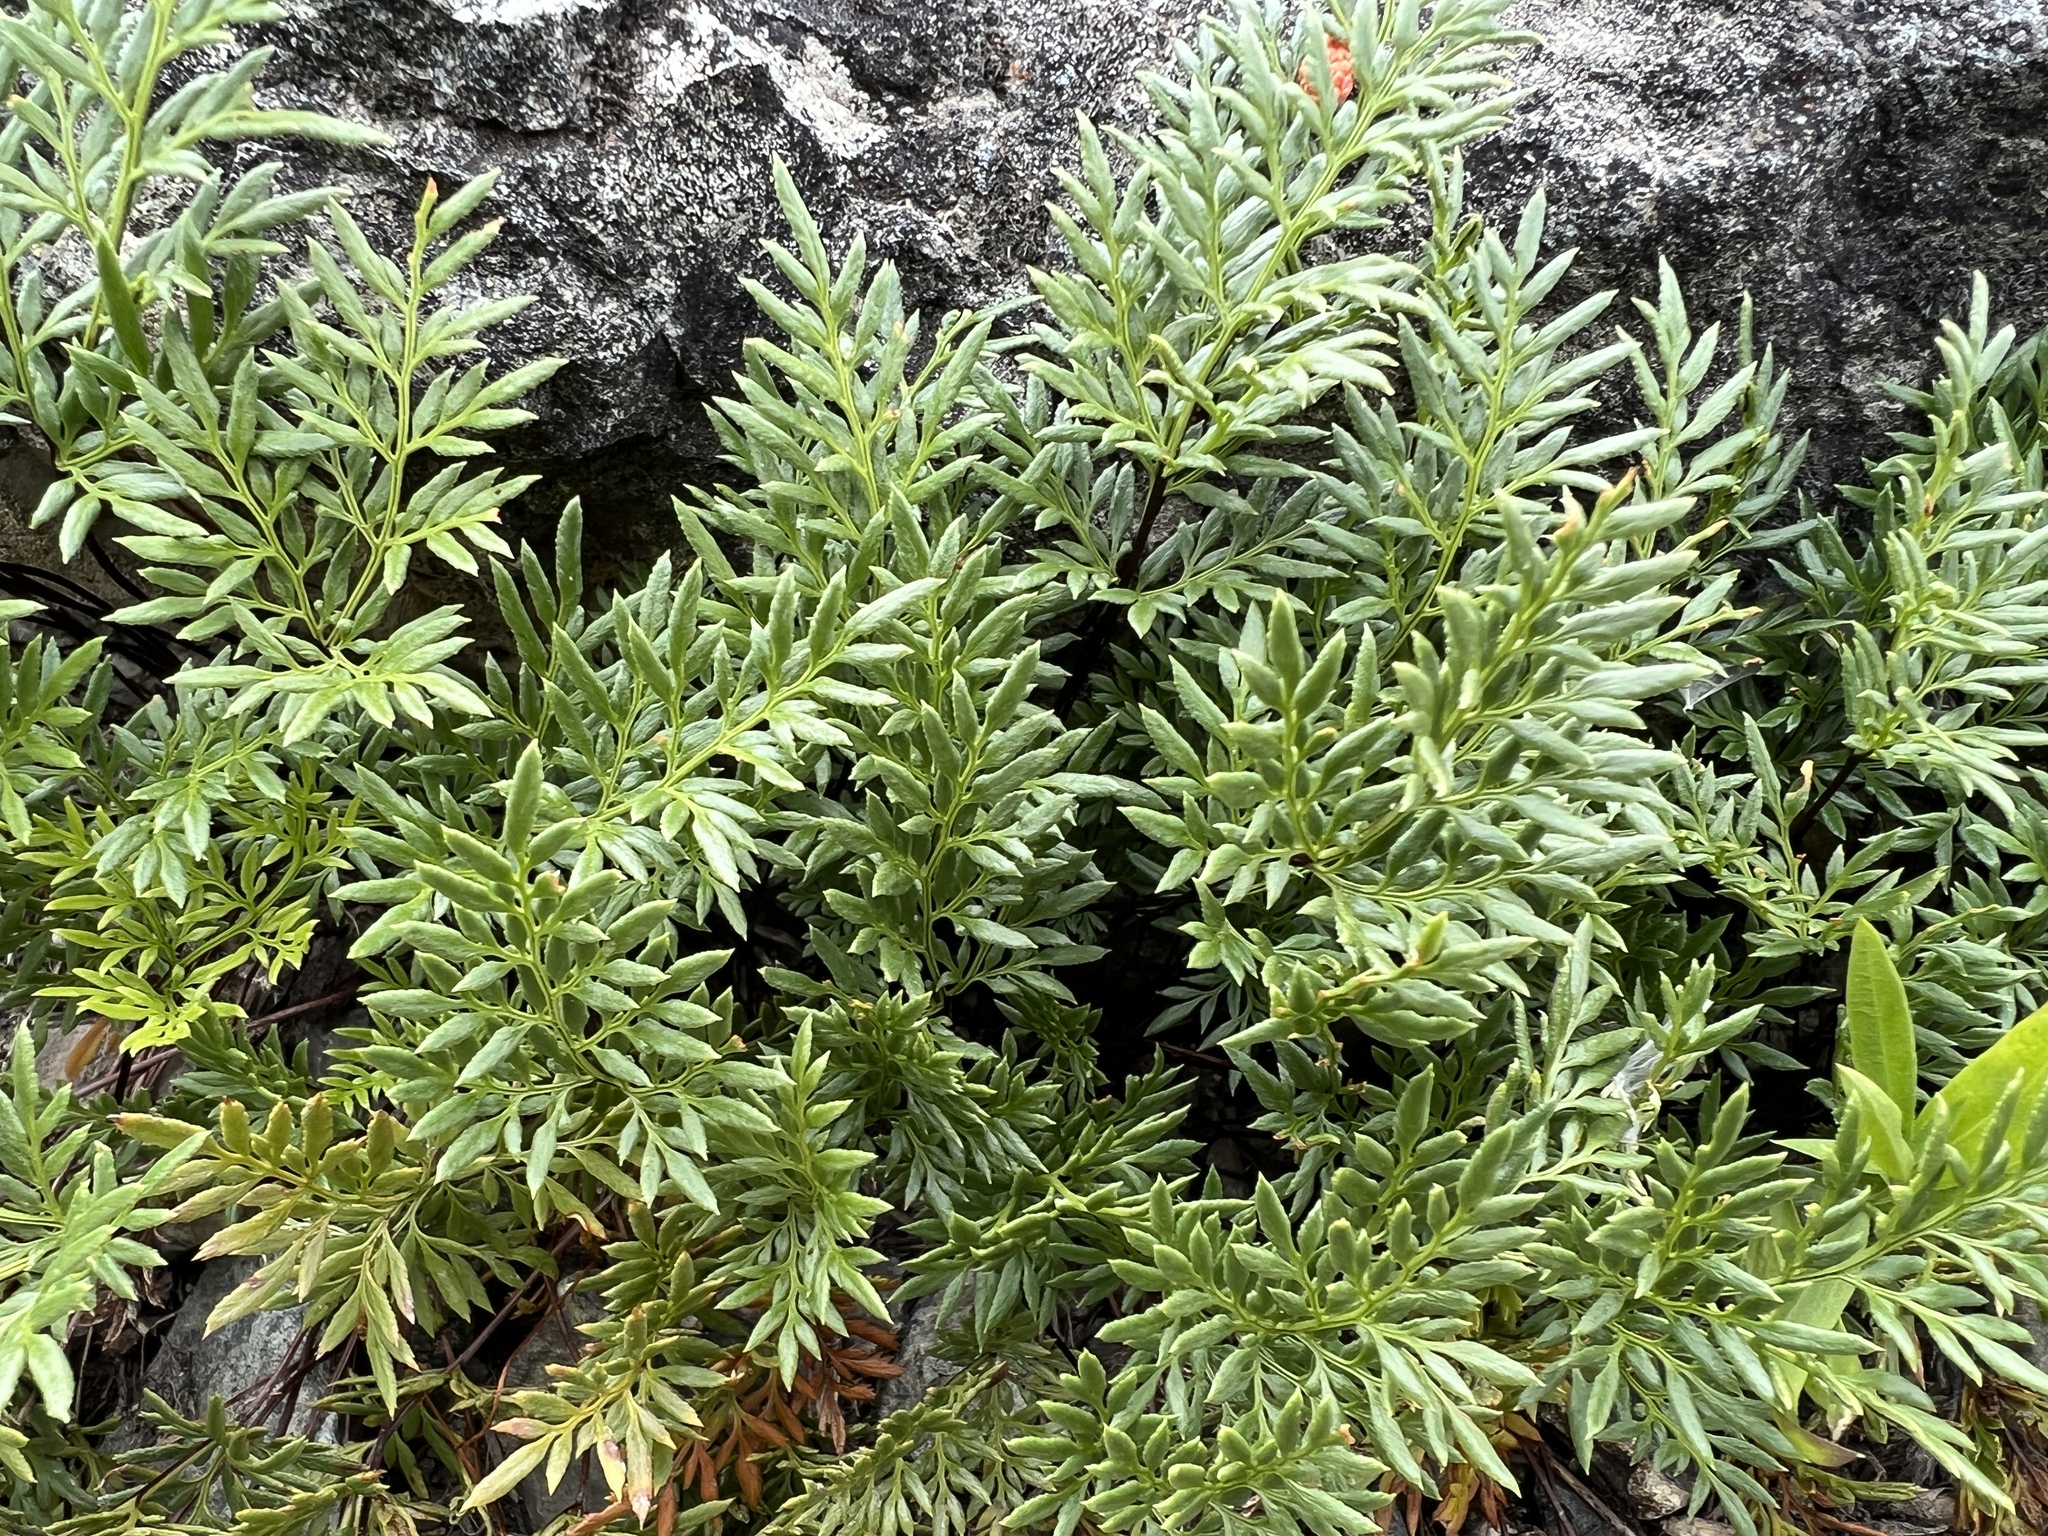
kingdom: Plantae
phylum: Tracheophyta
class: Polypodiopsida
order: Polypodiales
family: Pteridaceae
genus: Aspidotis
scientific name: Aspidotis densa
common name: Indian's dream
